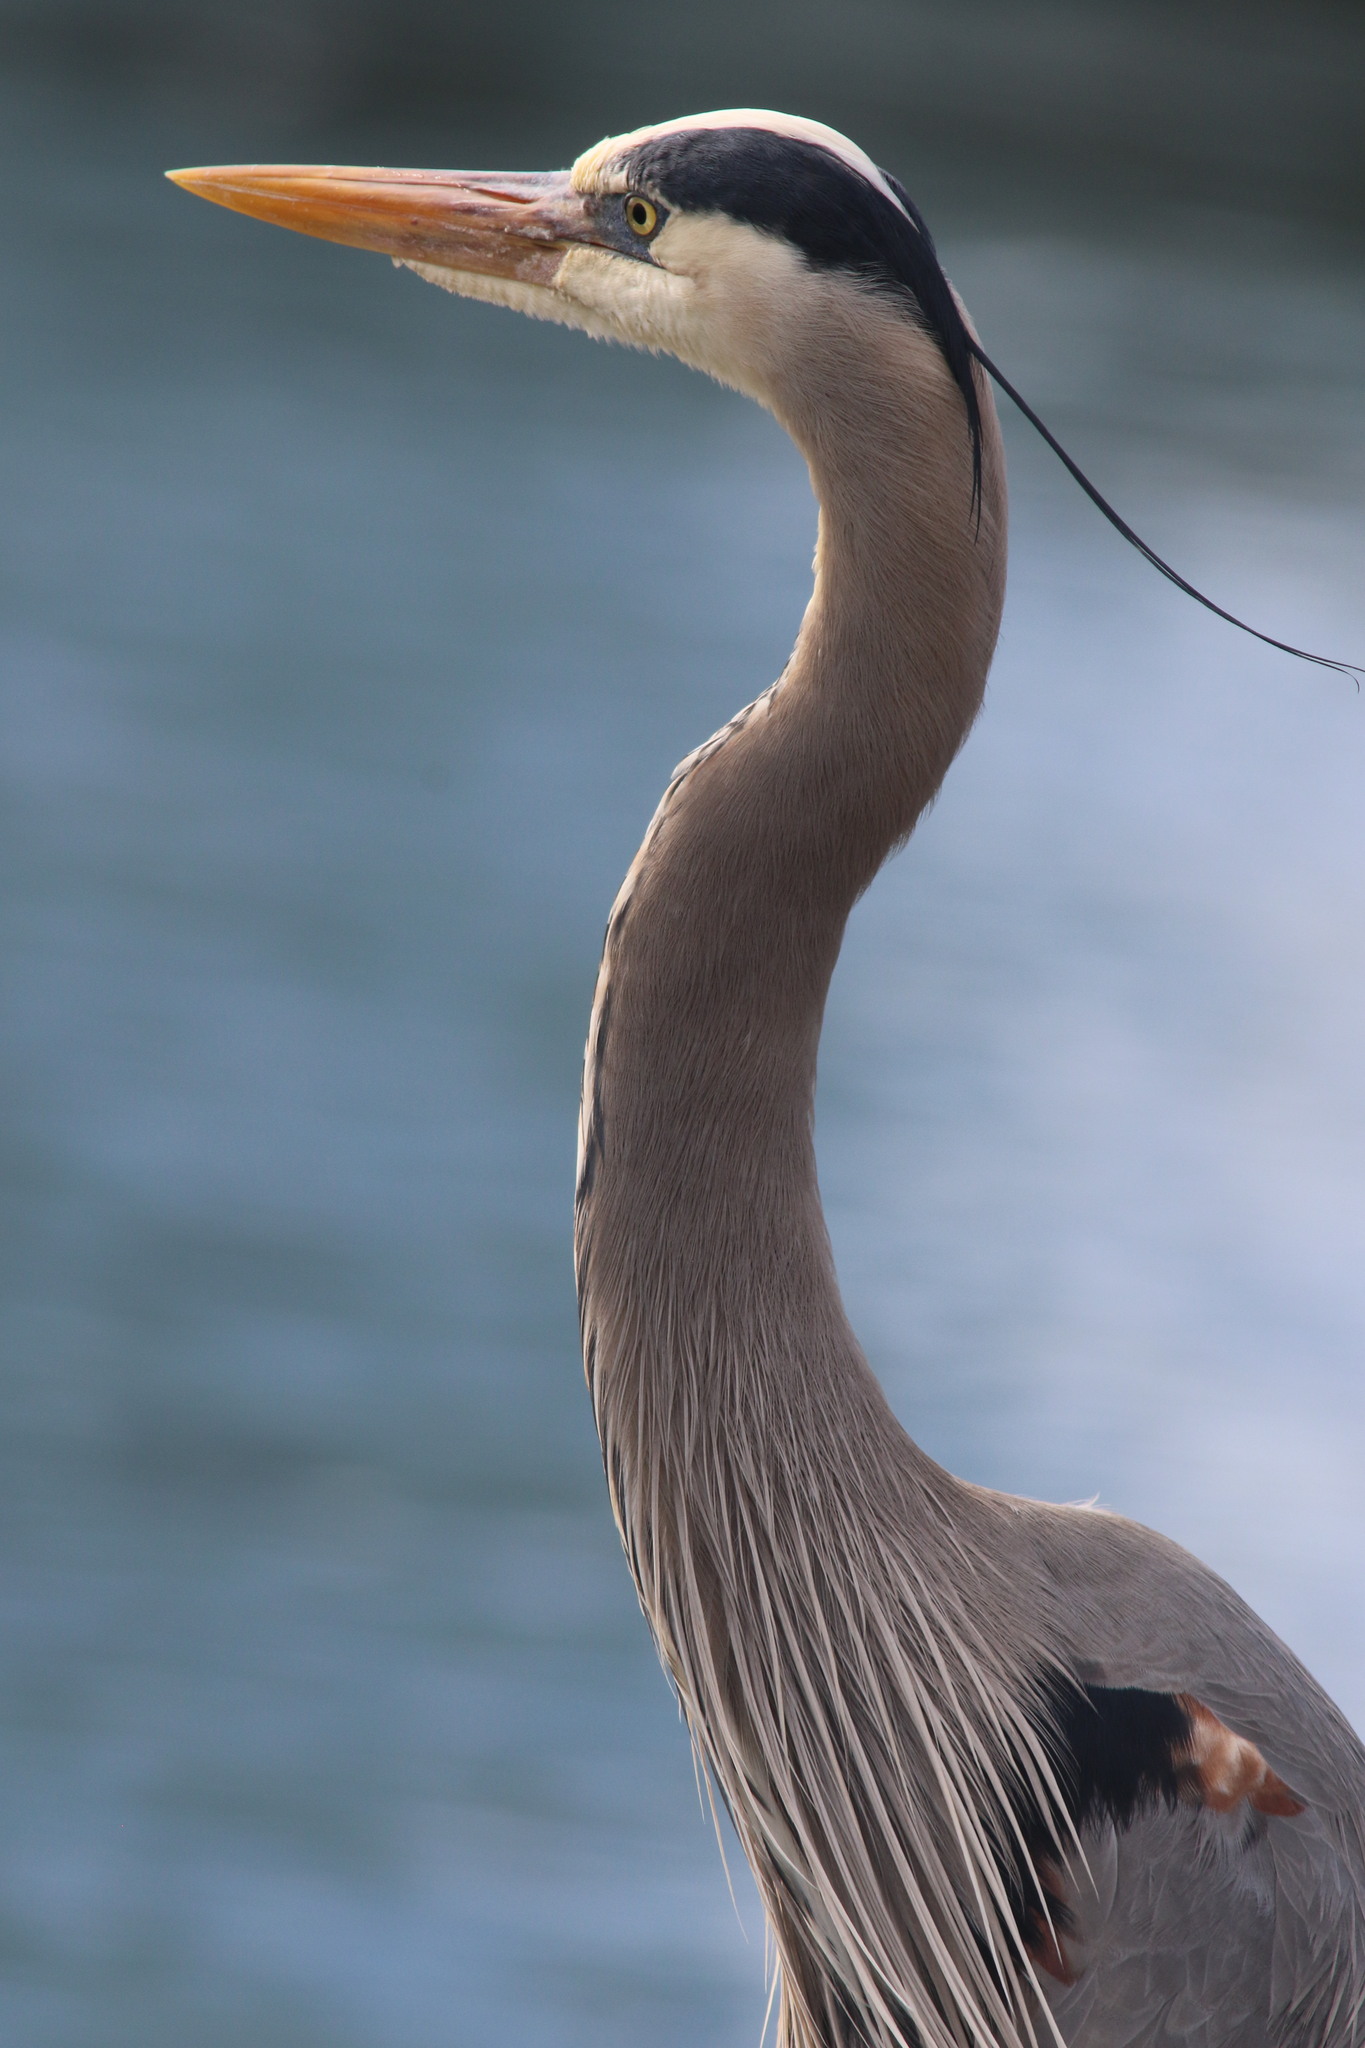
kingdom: Animalia
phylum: Chordata
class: Aves
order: Pelecaniformes
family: Ardeidae
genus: Ardea
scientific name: Ardea herodias
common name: Great blue heron
